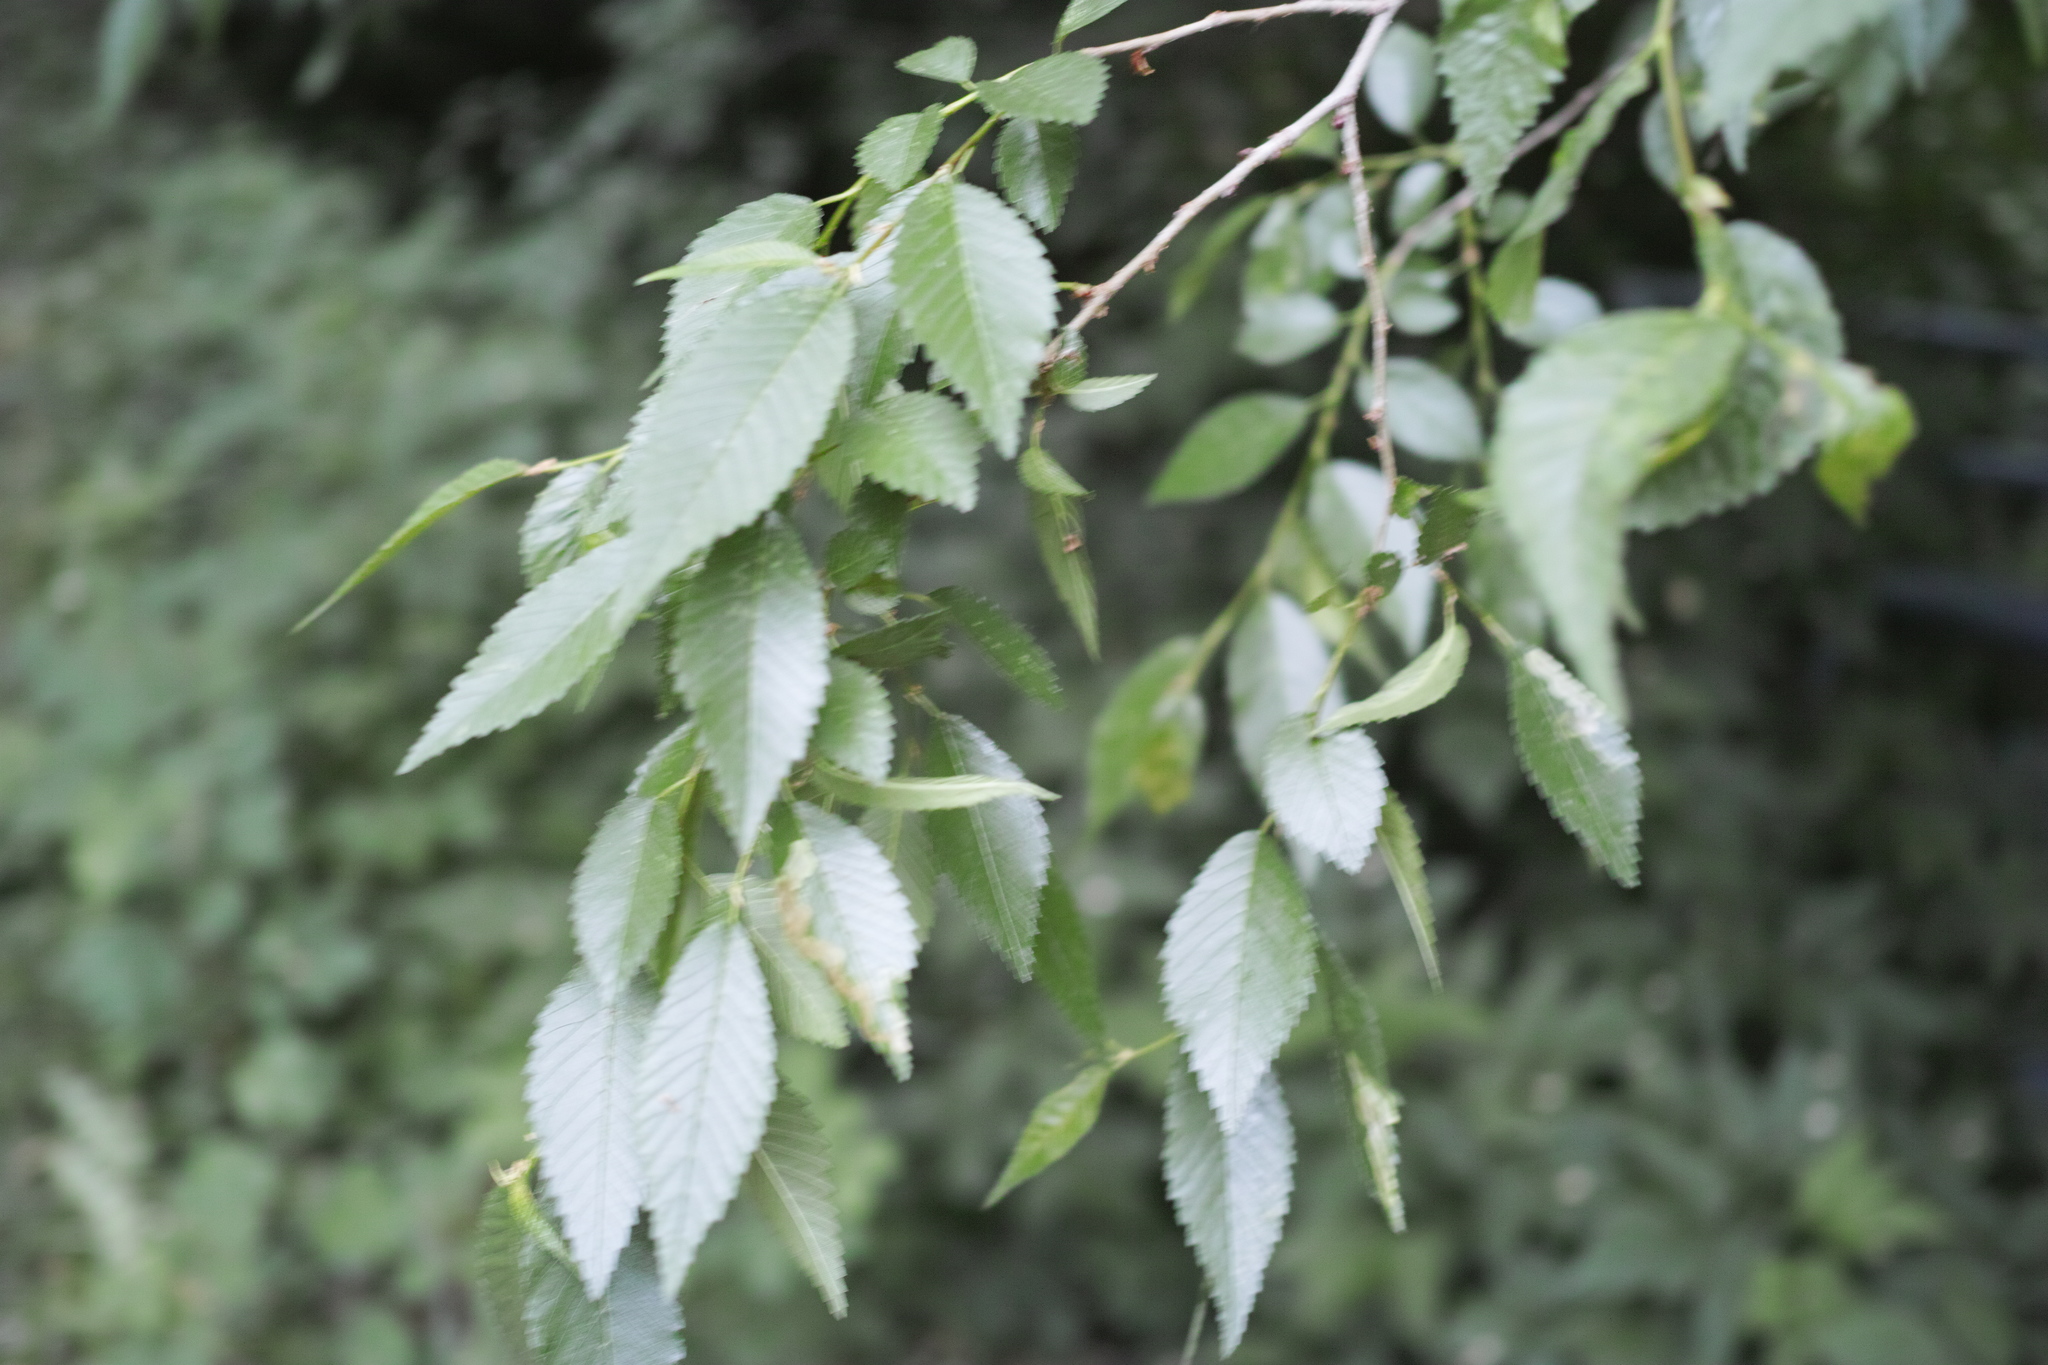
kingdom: Plantae
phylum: Tracheophyta
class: Magnoliopsida
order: Rosales
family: Ulmaceae
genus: Ulmus
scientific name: Ulmus pumila
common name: Siberian elm
